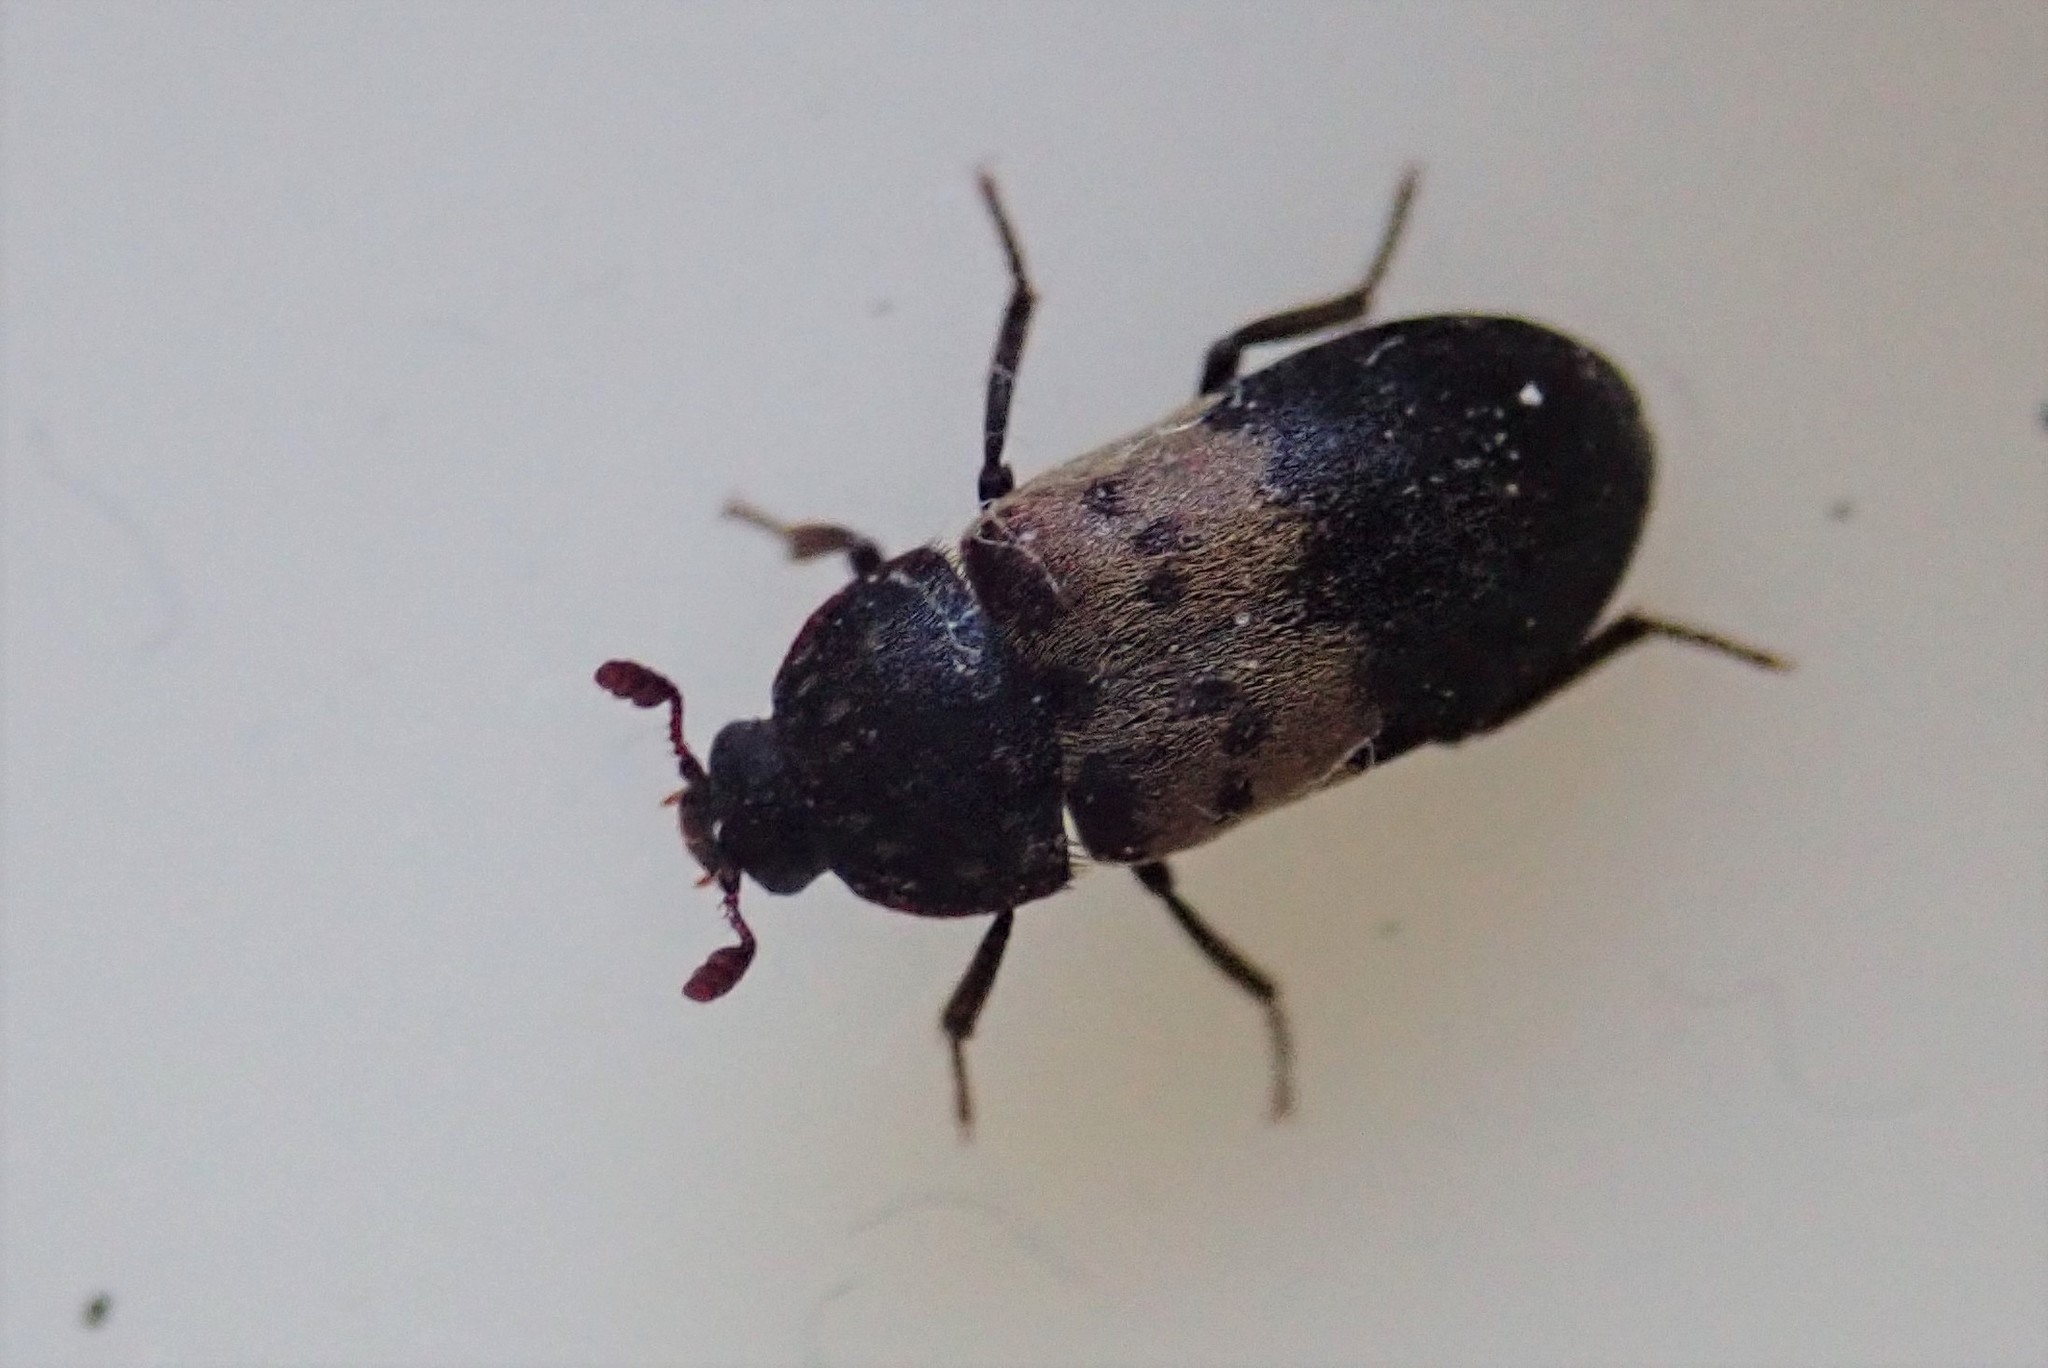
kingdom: Animalia
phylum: Arthropoda
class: Insecta
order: Coleoptera
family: Dermestidae
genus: Dermestes
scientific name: Dermestes lardarius
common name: Larder beetle
